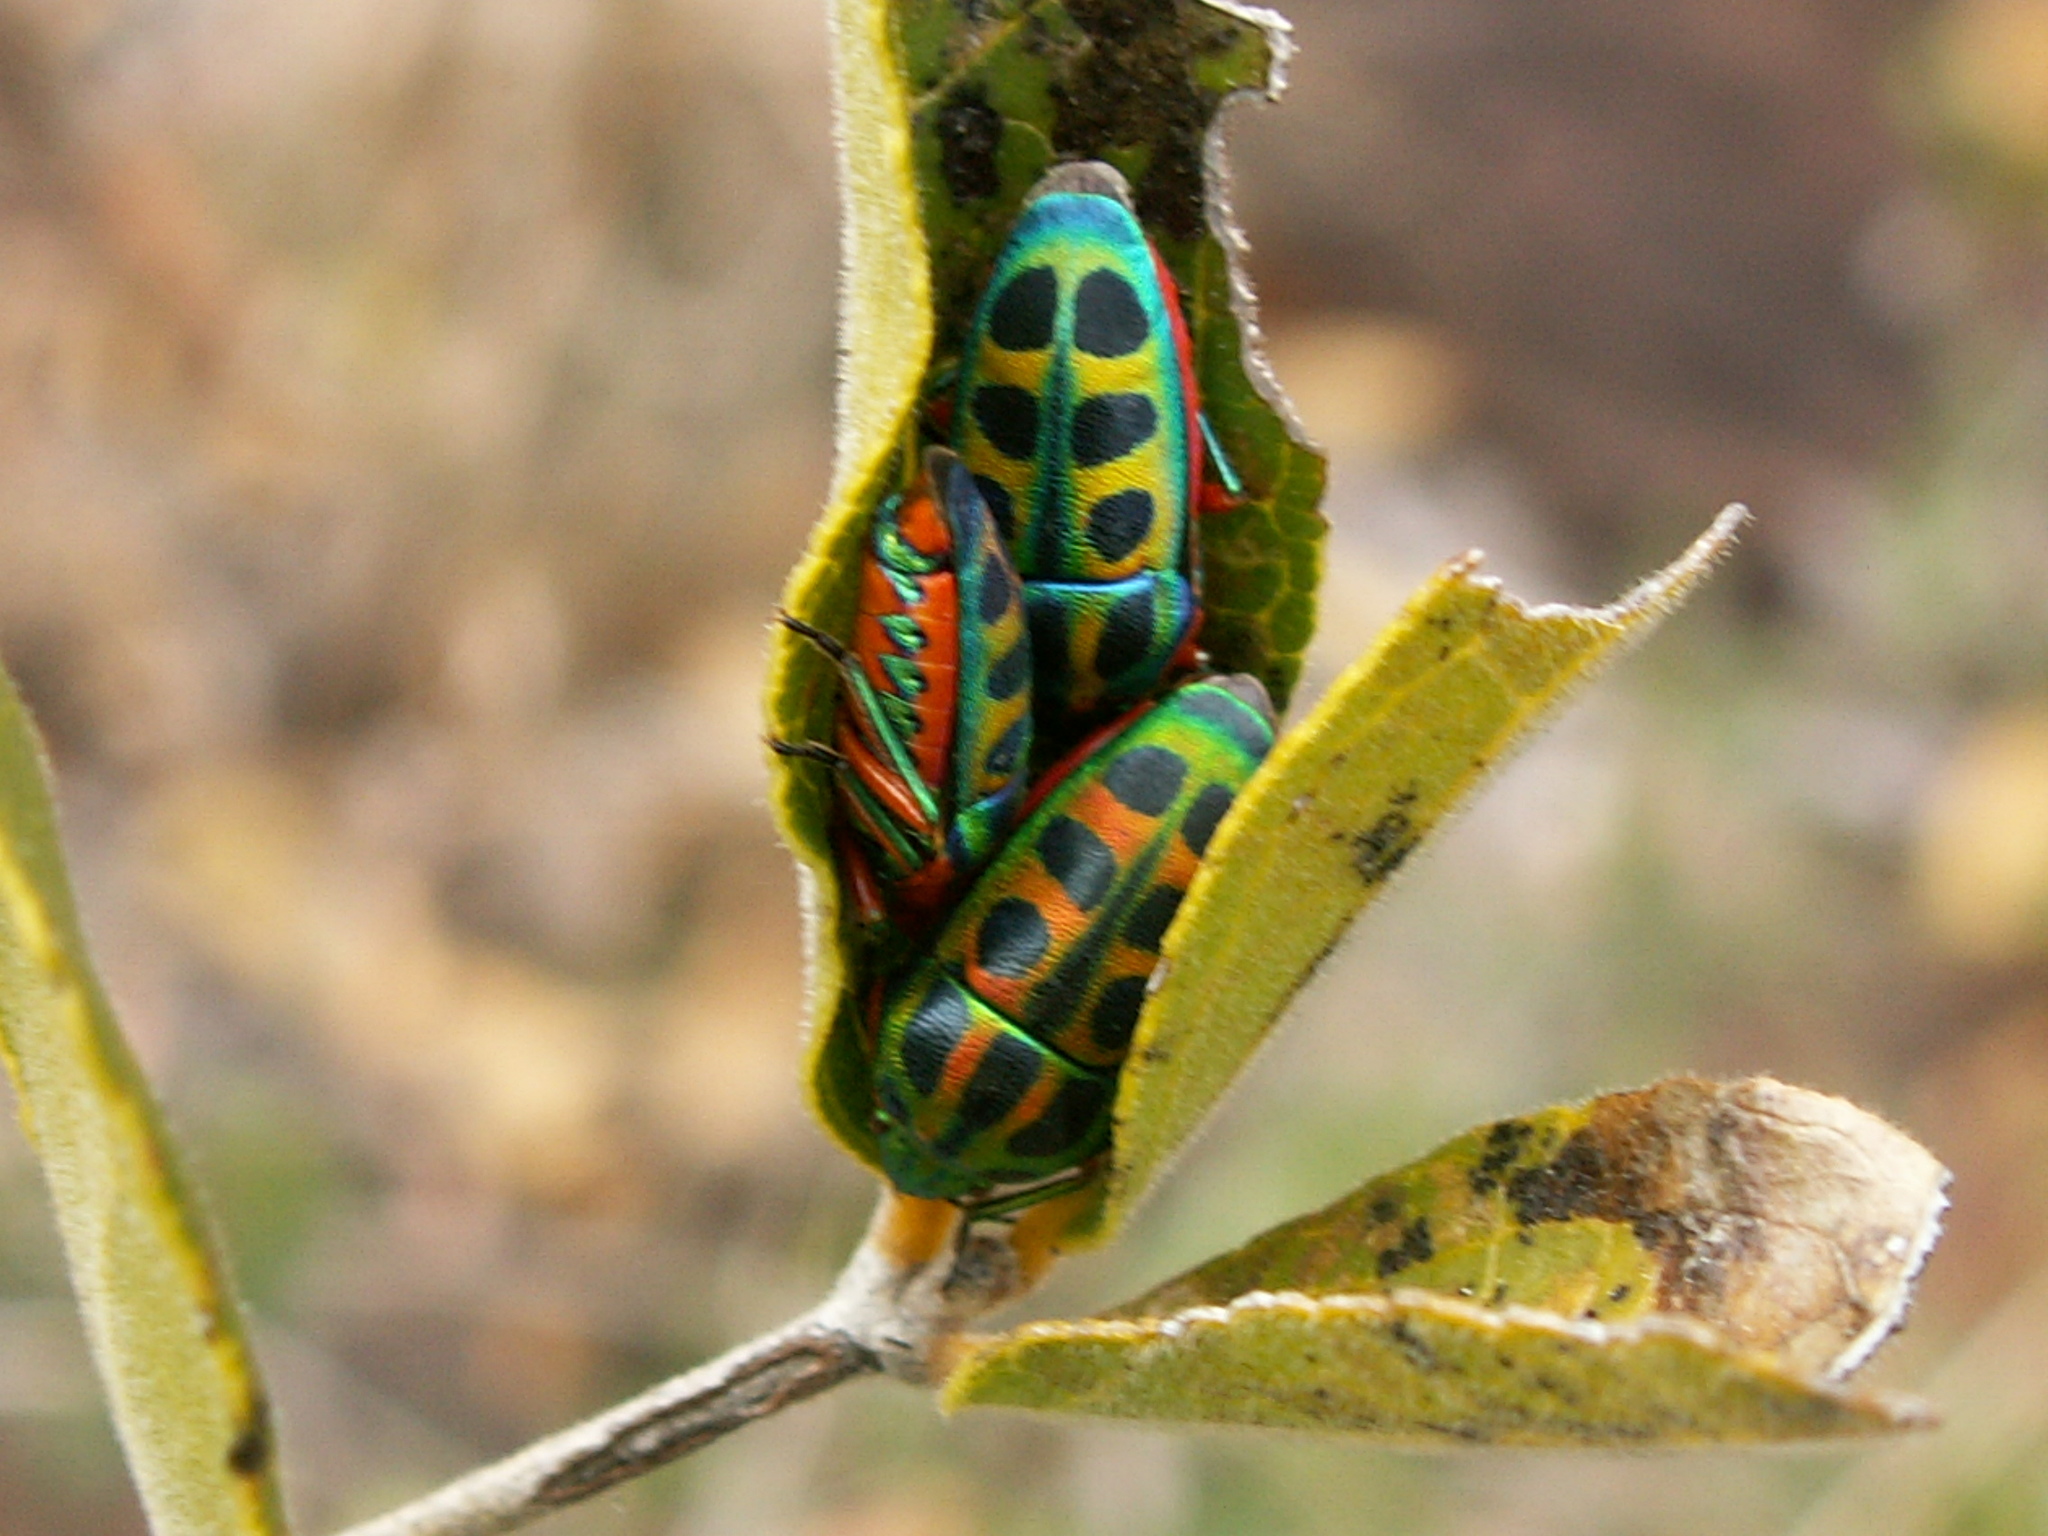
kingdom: Animalia
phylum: Arthropoda
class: Insecta
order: Hemiptera
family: Scutelleridae
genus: Calidea
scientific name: Calidea dregii
